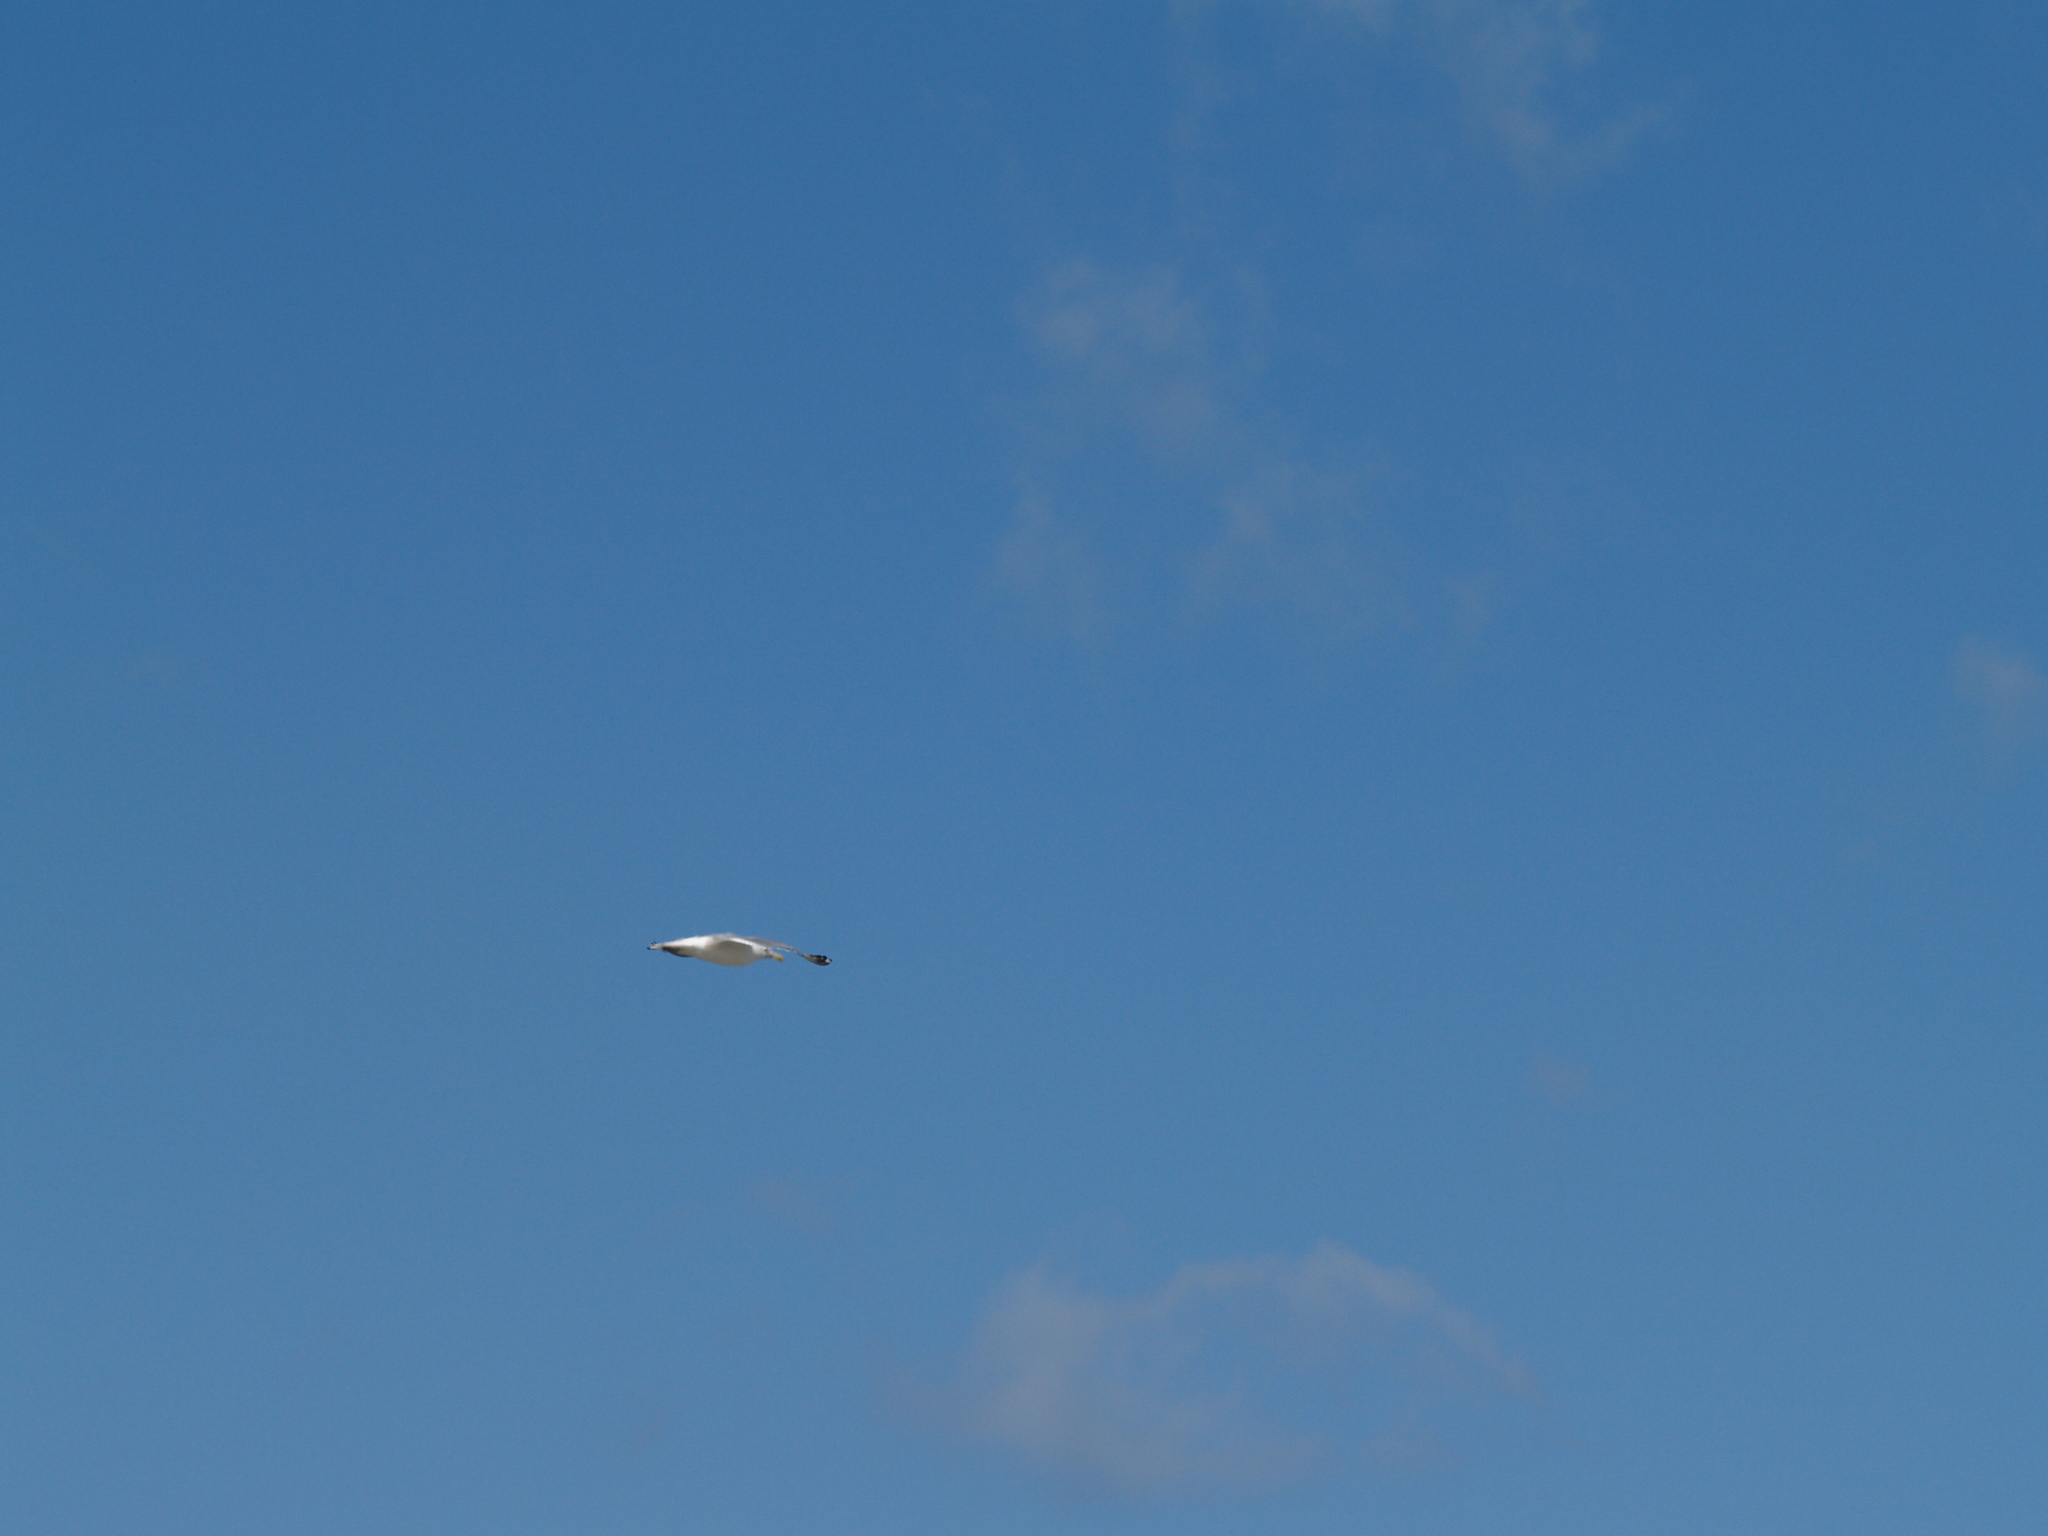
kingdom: Animalia
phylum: Chordata
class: Aves
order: Charadriiformes
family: Laridae
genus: Larus
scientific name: Larus argentatus
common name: Herring gull
